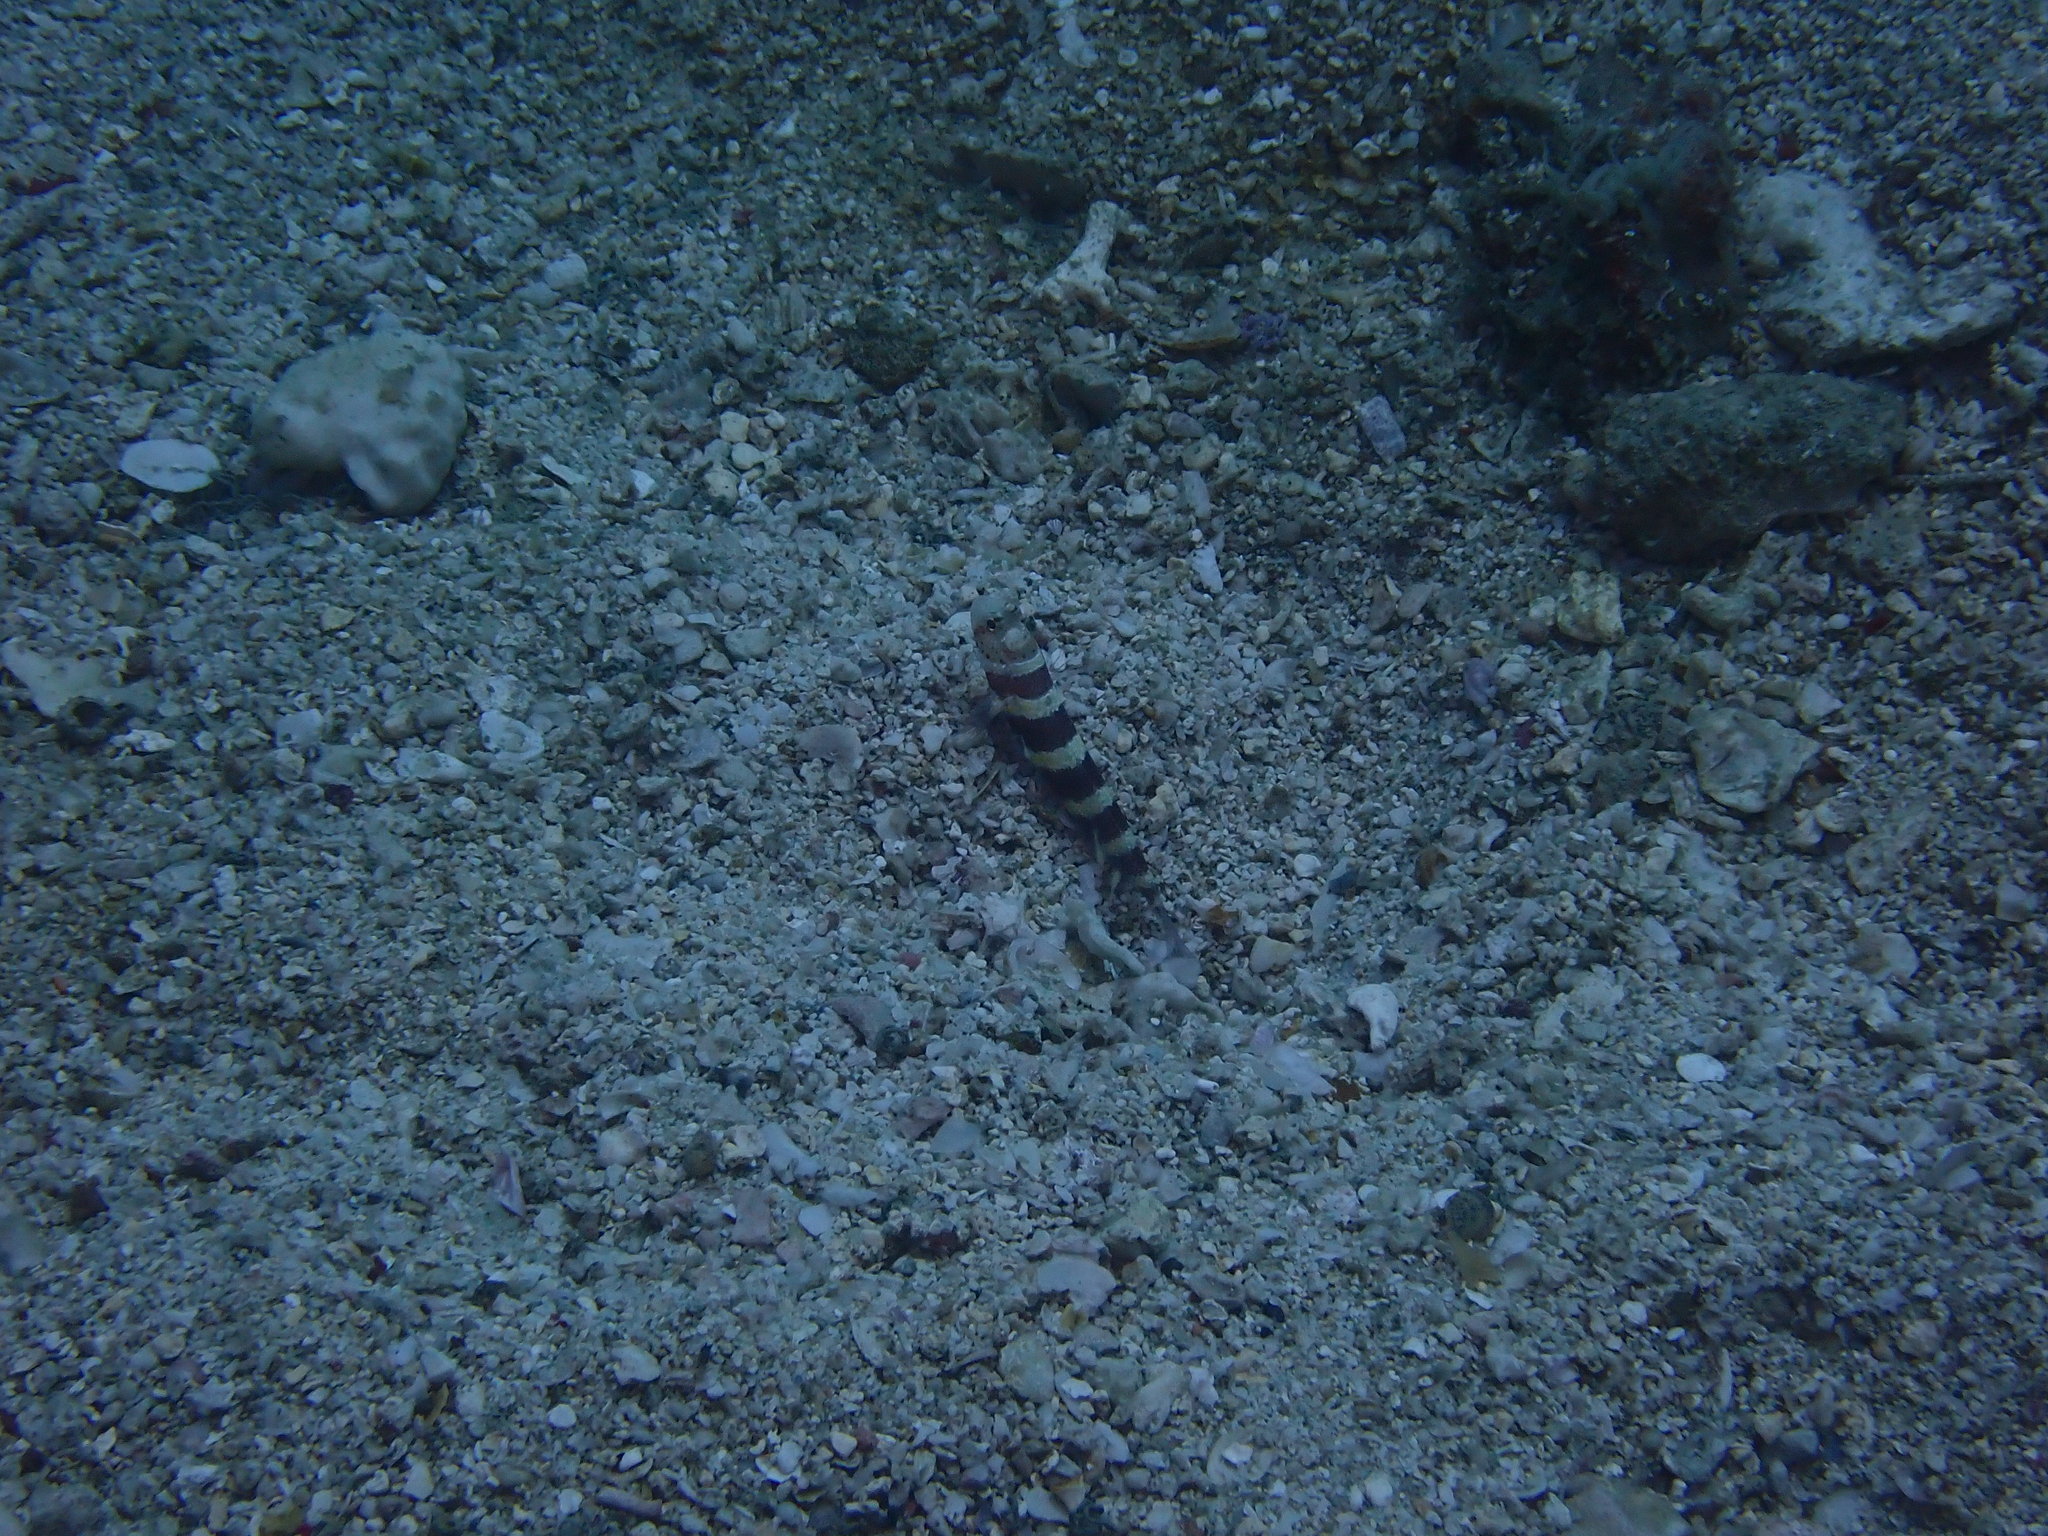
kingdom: Animalia
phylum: Chordata
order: Perciformes
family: Gobiidae
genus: Amblyeleotris
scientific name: Amblyeleotris wheeleri
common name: Gorgeous prawn-goby
